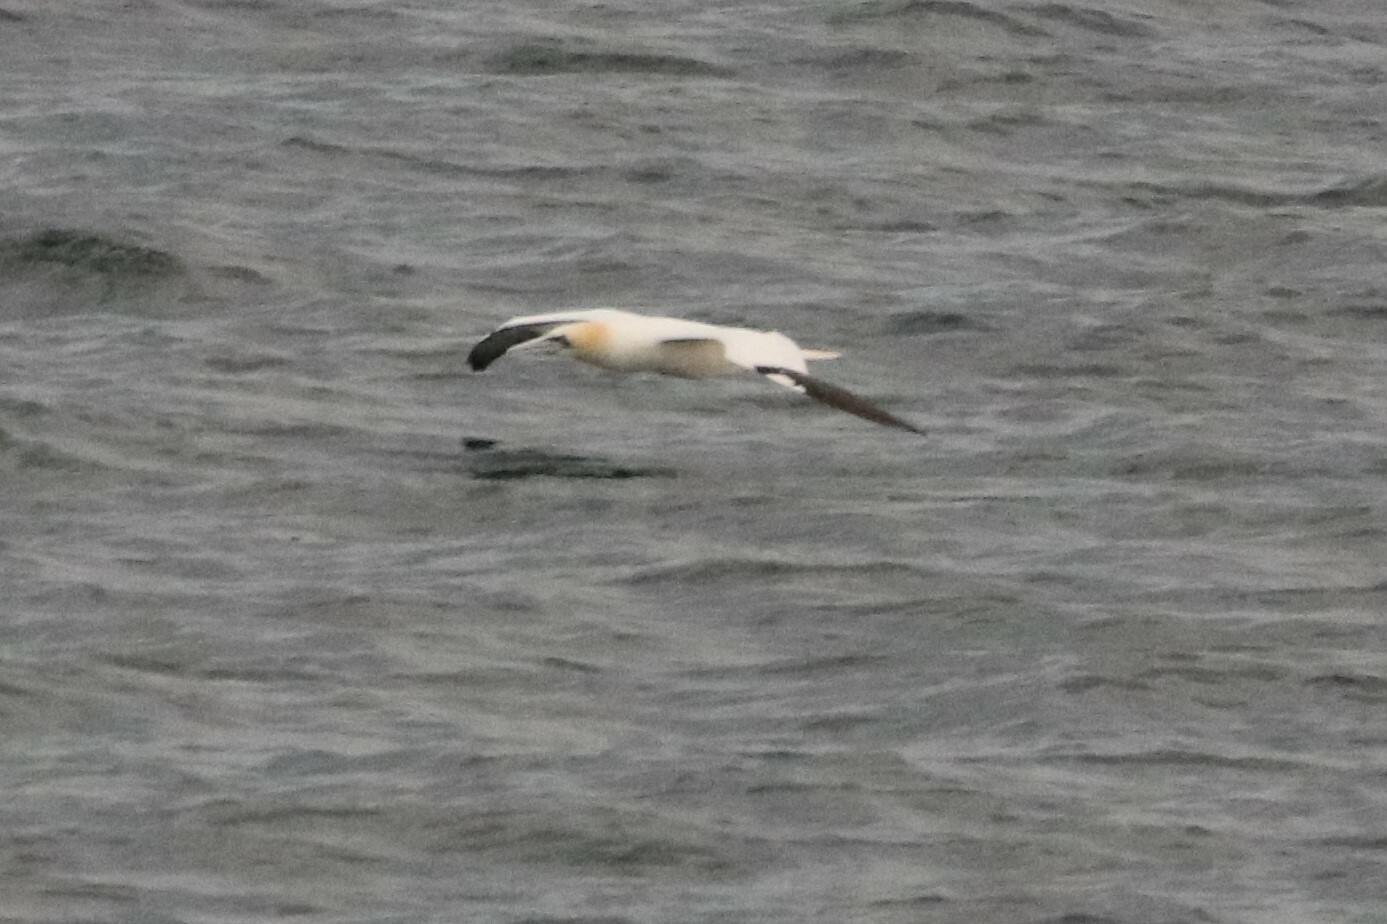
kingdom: Animalia
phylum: Chordata
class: Aves
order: Suliformes
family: Sulidae
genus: Morus
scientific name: Morus bassanus
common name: Northern gannet
